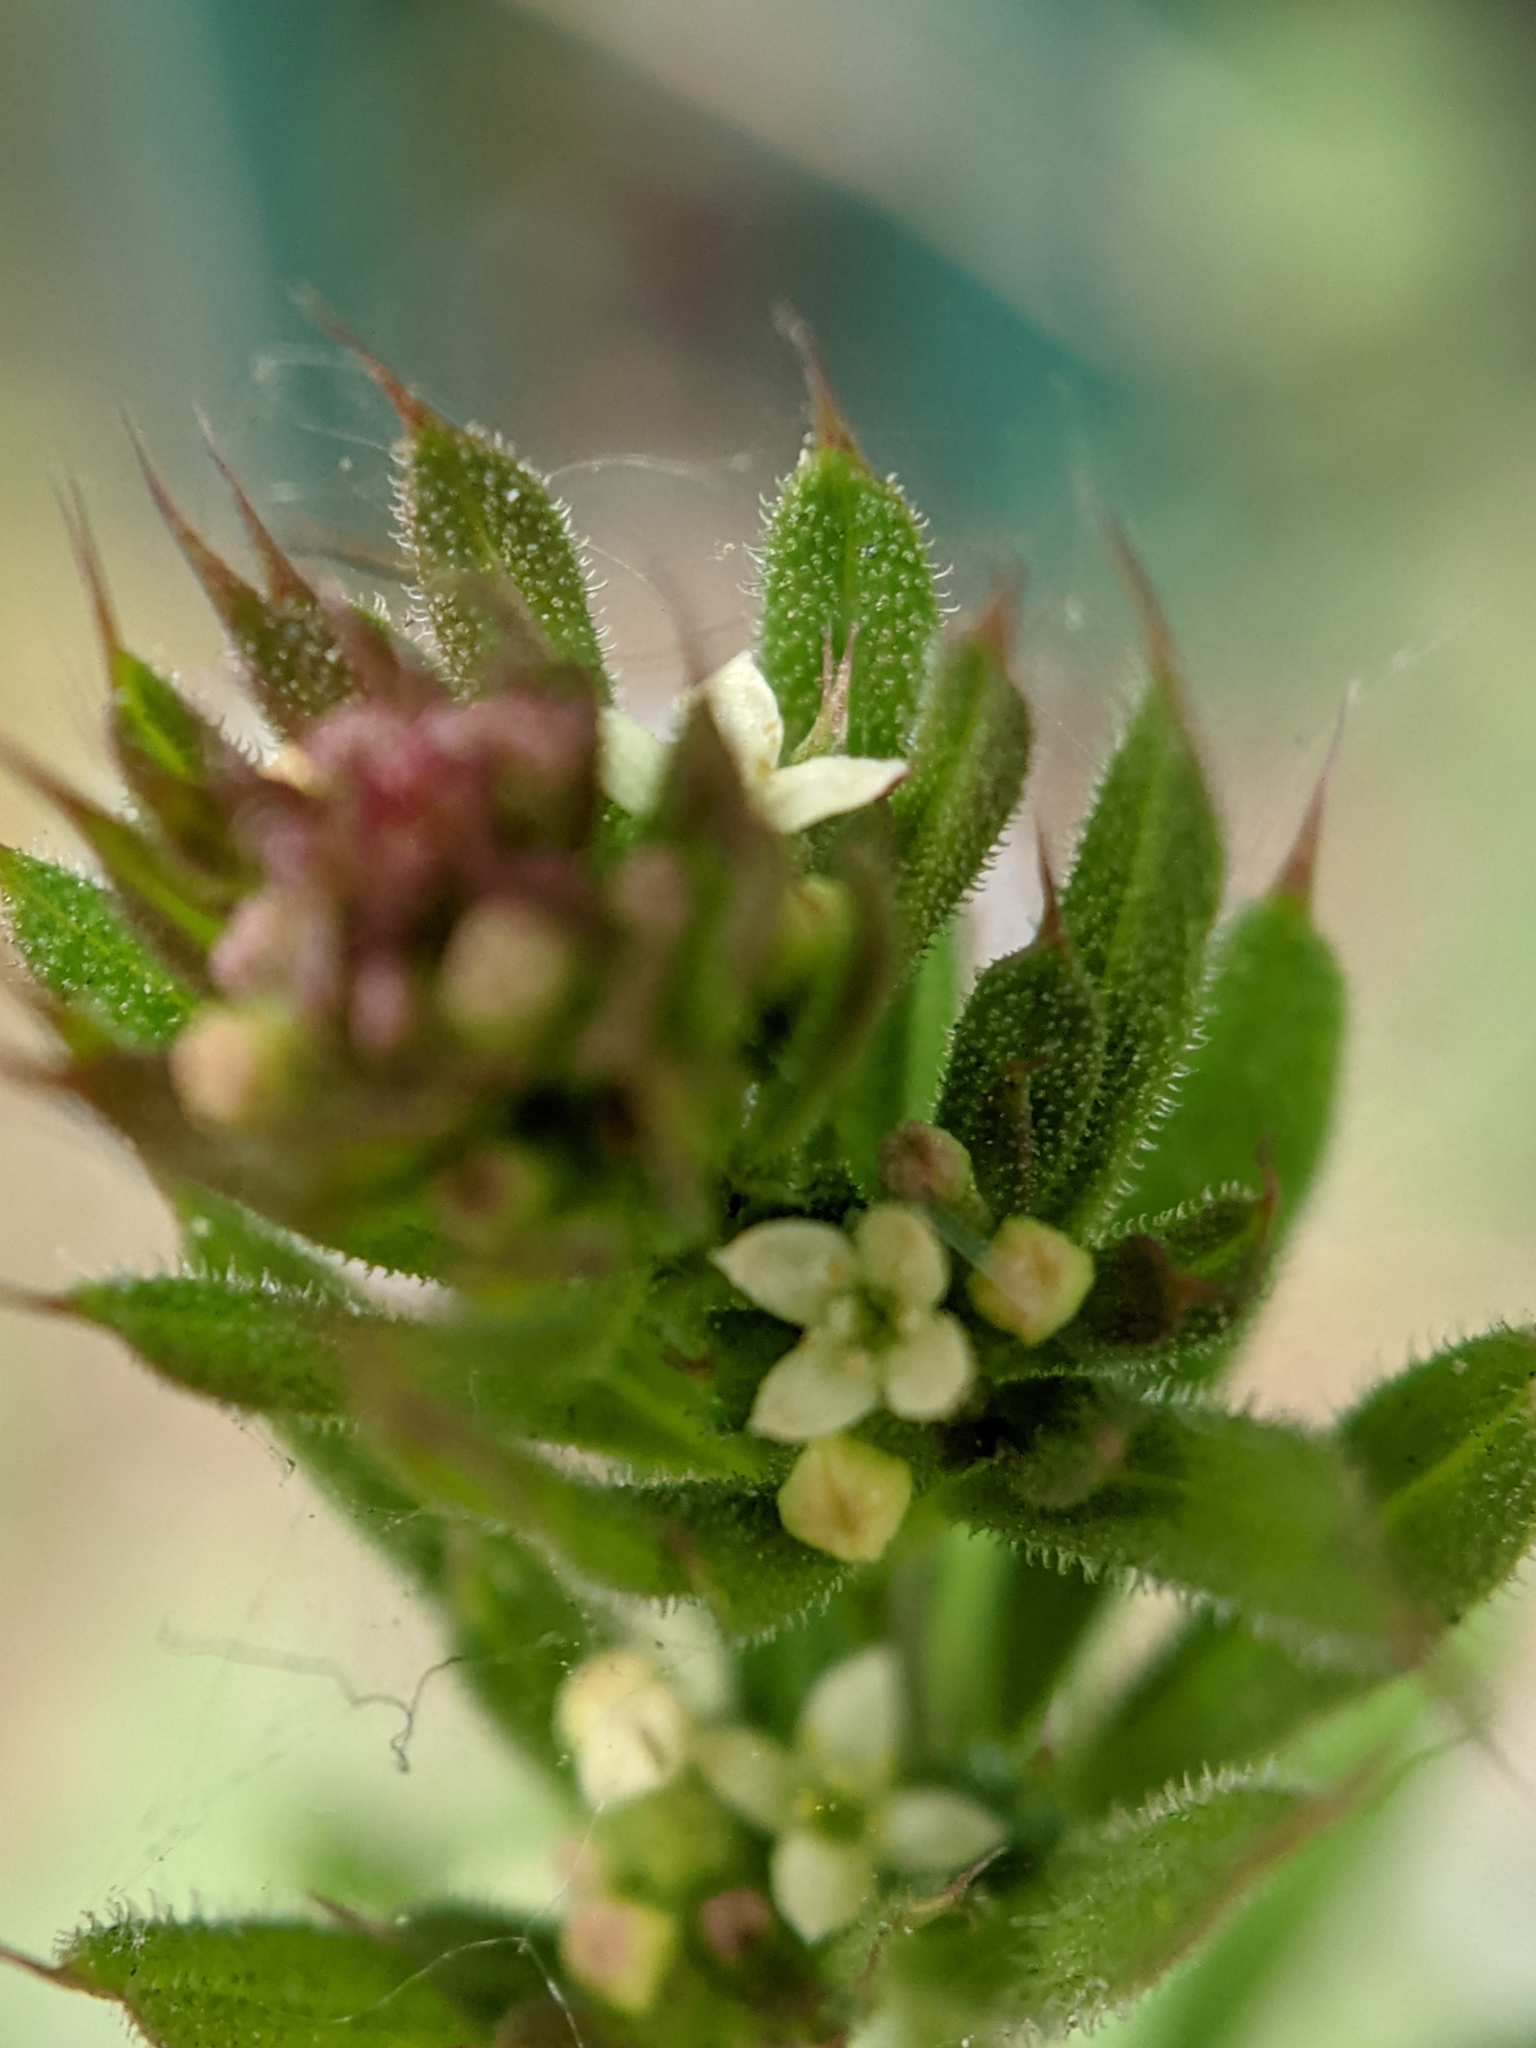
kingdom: Plantae
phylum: Tracheophyta
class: Magnoliopsida
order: Gentianales
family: Rubiaceae
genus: Galium
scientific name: Galium aparine
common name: Cleavers
